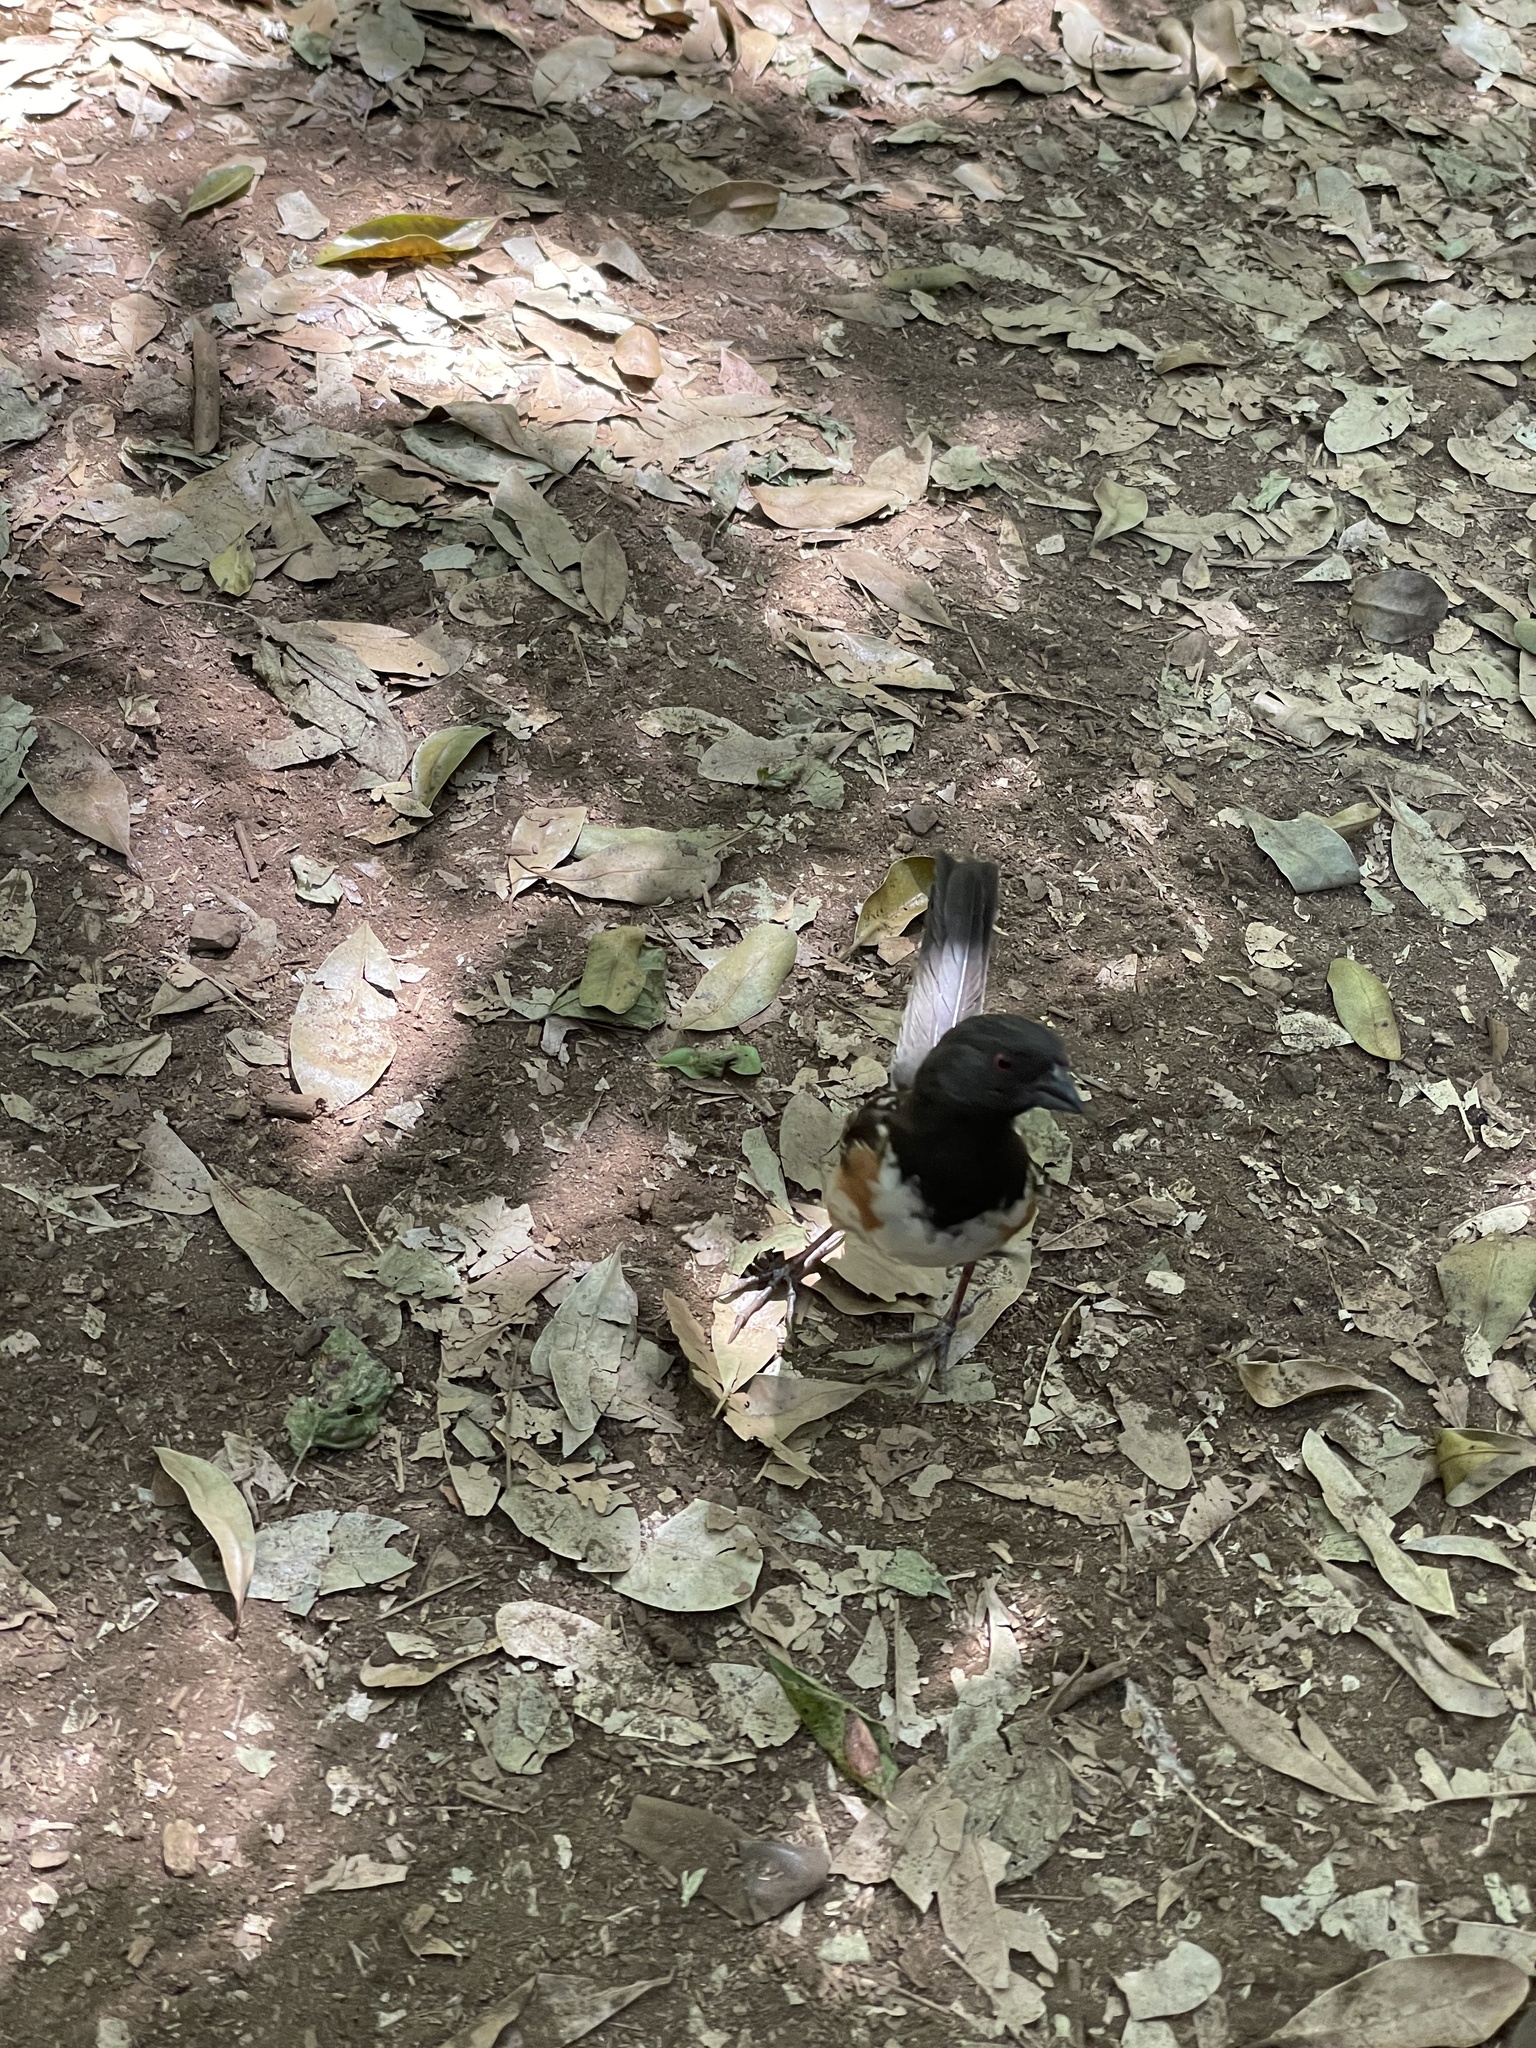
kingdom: Animalia
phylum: Chordata
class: Aves
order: Passeriformes
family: Passerellidae
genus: Pipilo
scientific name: Pipilo maculatus
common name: Spotted towhee
